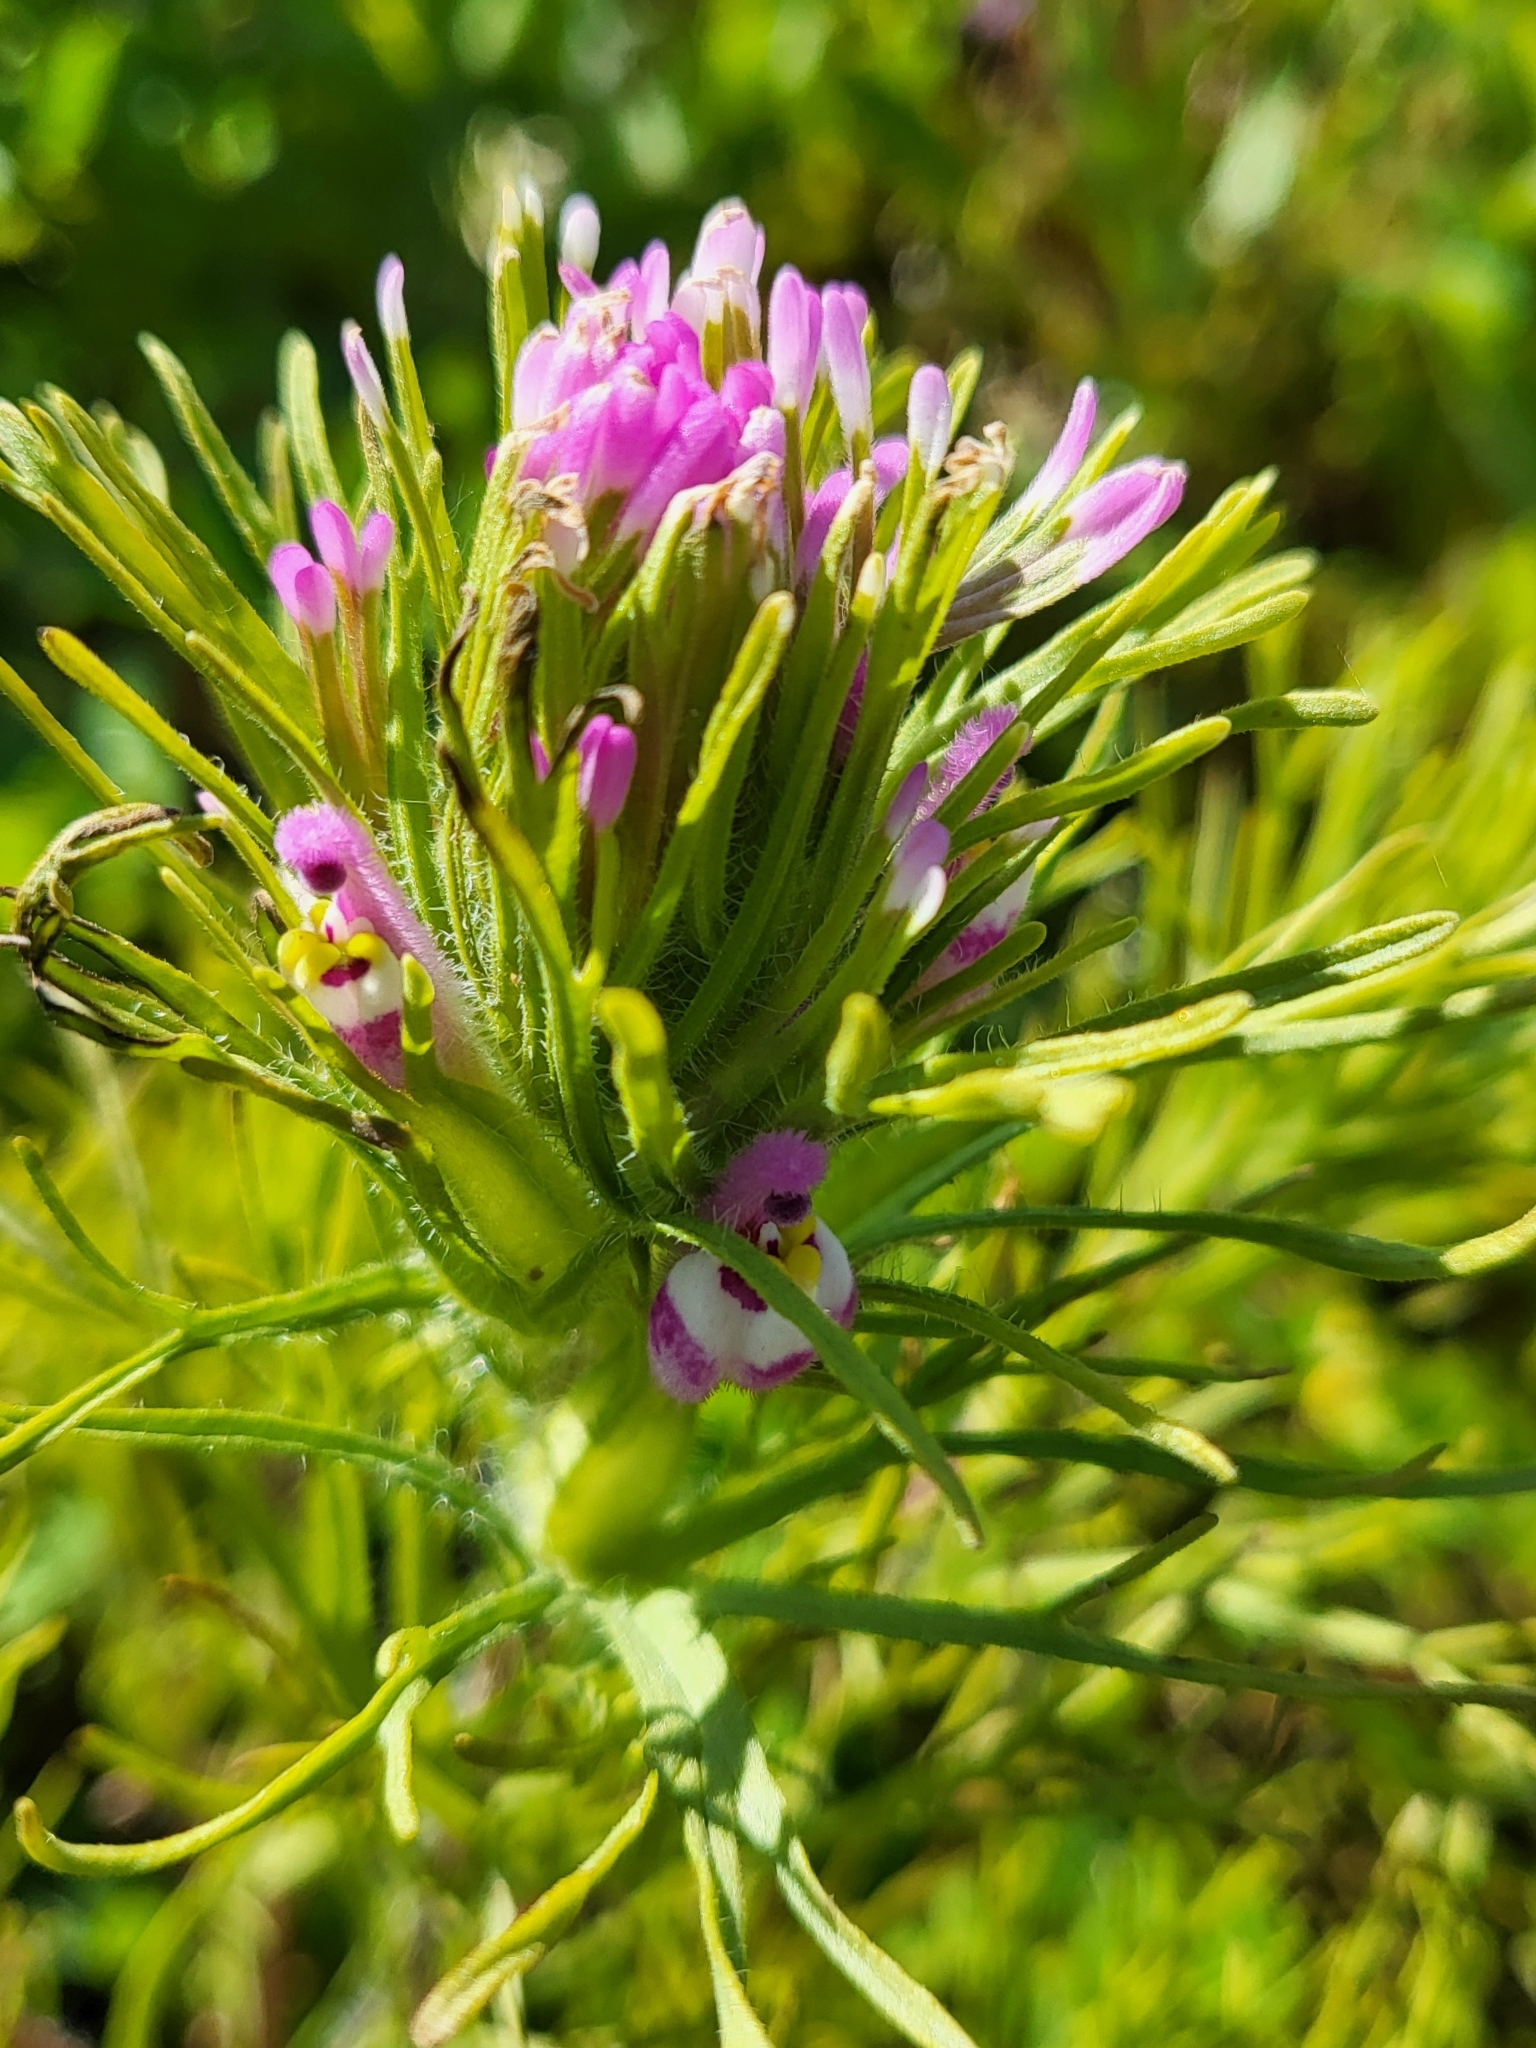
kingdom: Plantae
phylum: Tracheophyta
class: Magnoliopsida
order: Lamiales
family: Orobanchaceae
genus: Castilleja
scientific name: Castilleja exserta
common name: Purple owl-clover
